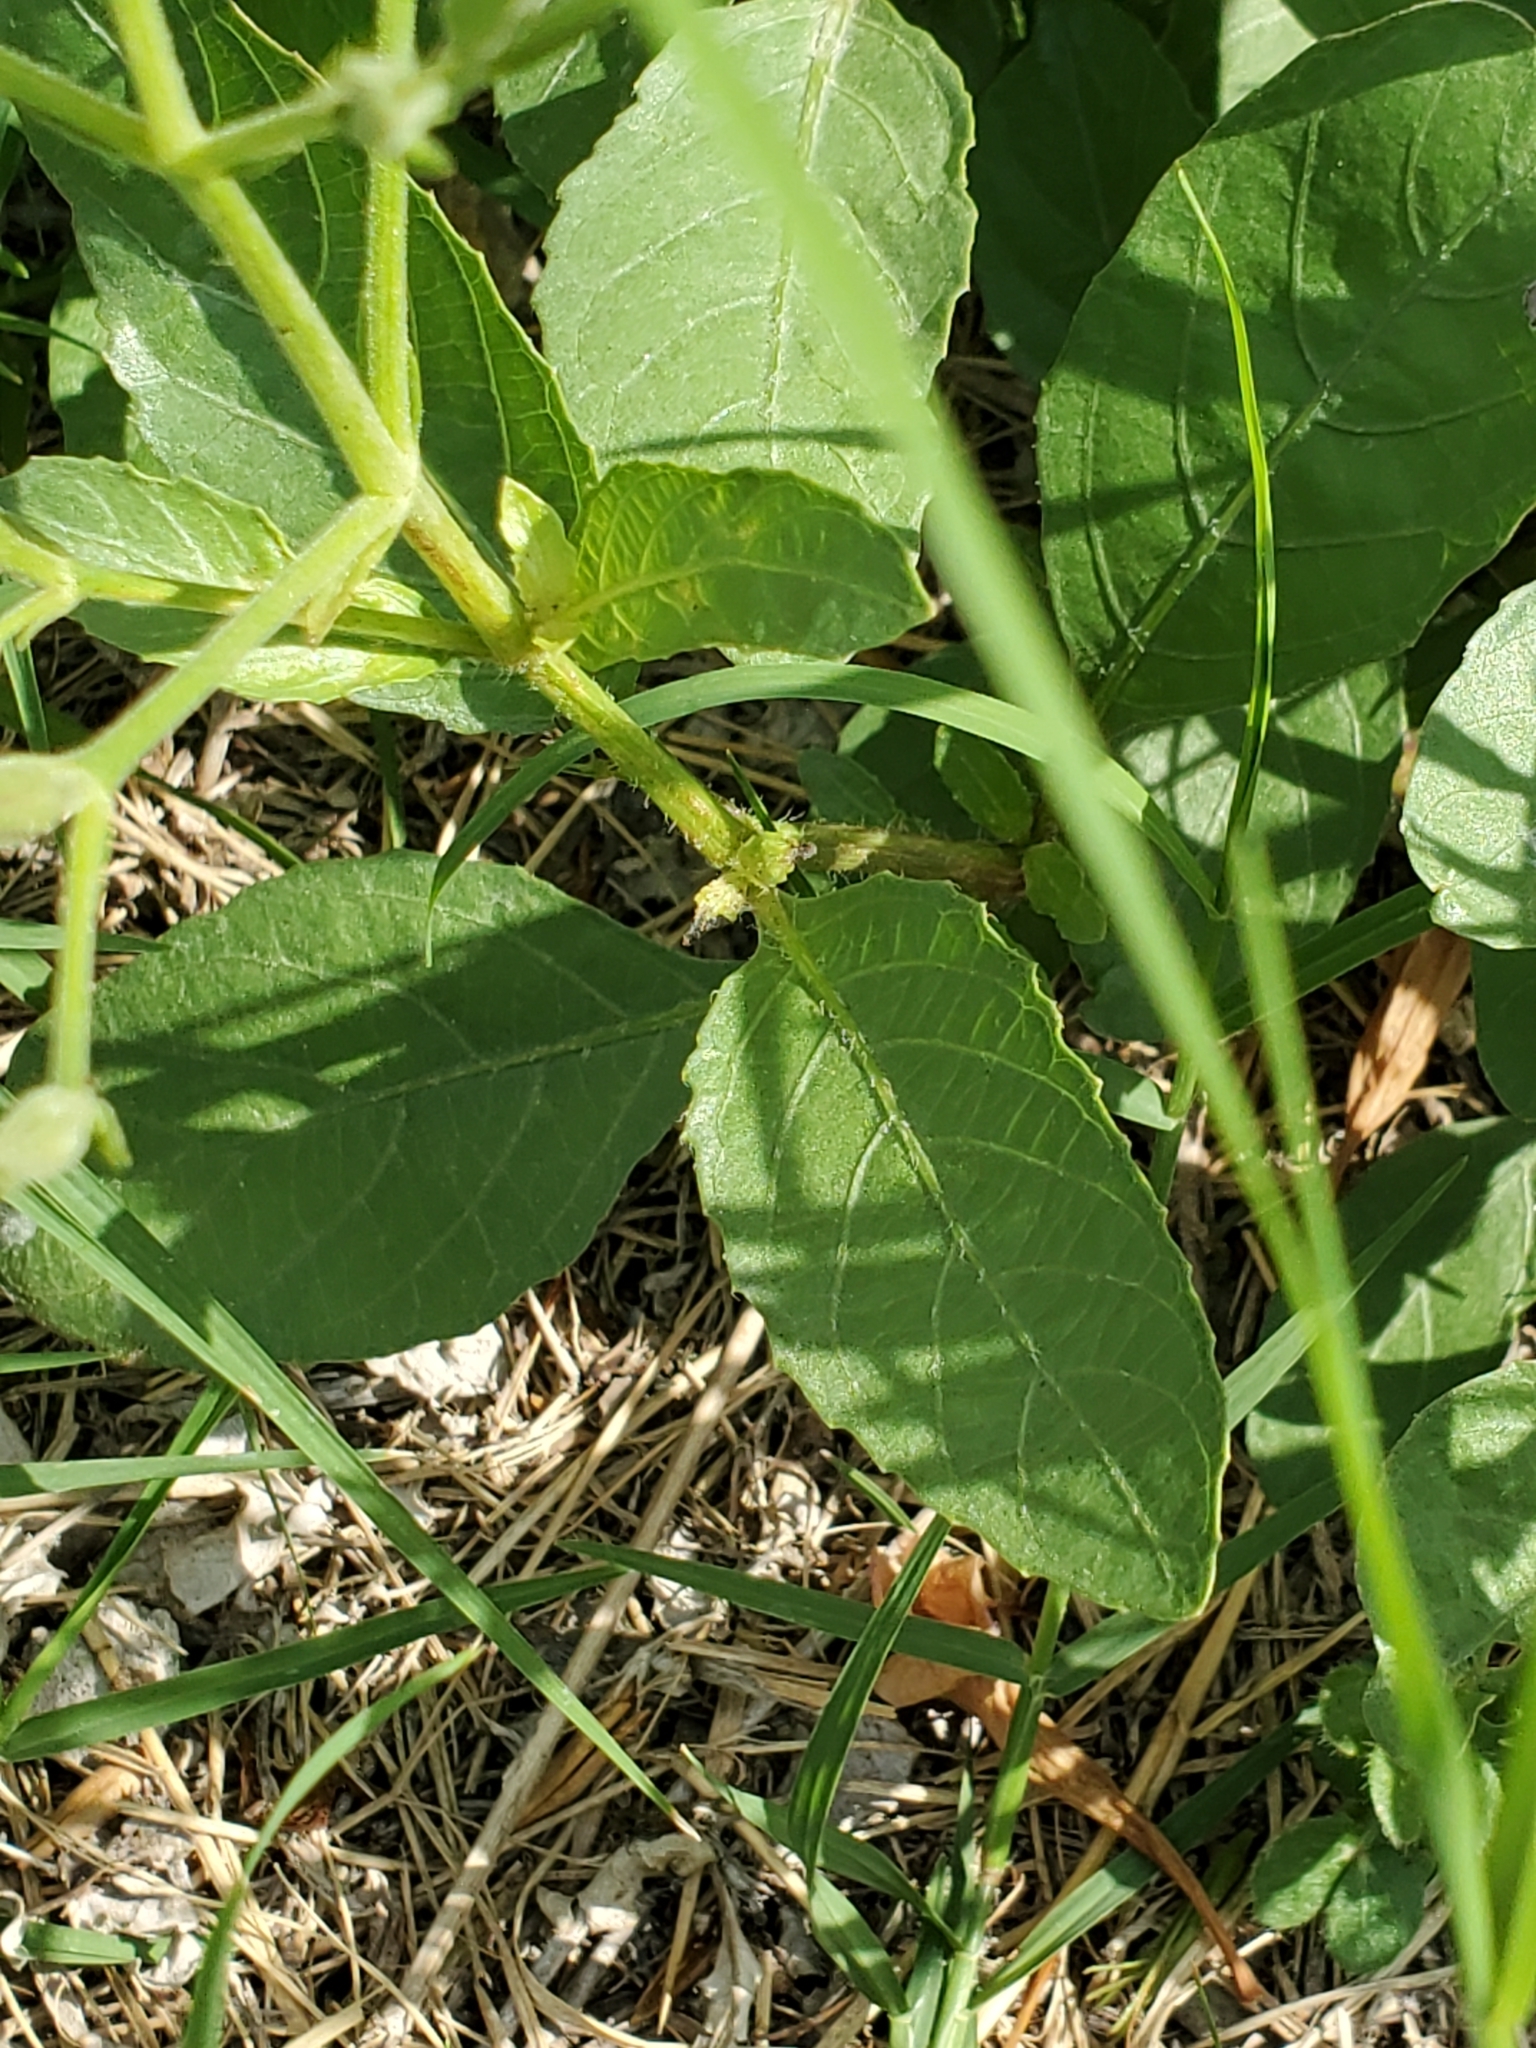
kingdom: Plantae
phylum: Tracheophyta
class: Magnoliopsida
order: Lamiales
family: Acanthaceae
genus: Ruellia
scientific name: Ruellia ciliatiflora
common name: Hairyflower wild petunia
